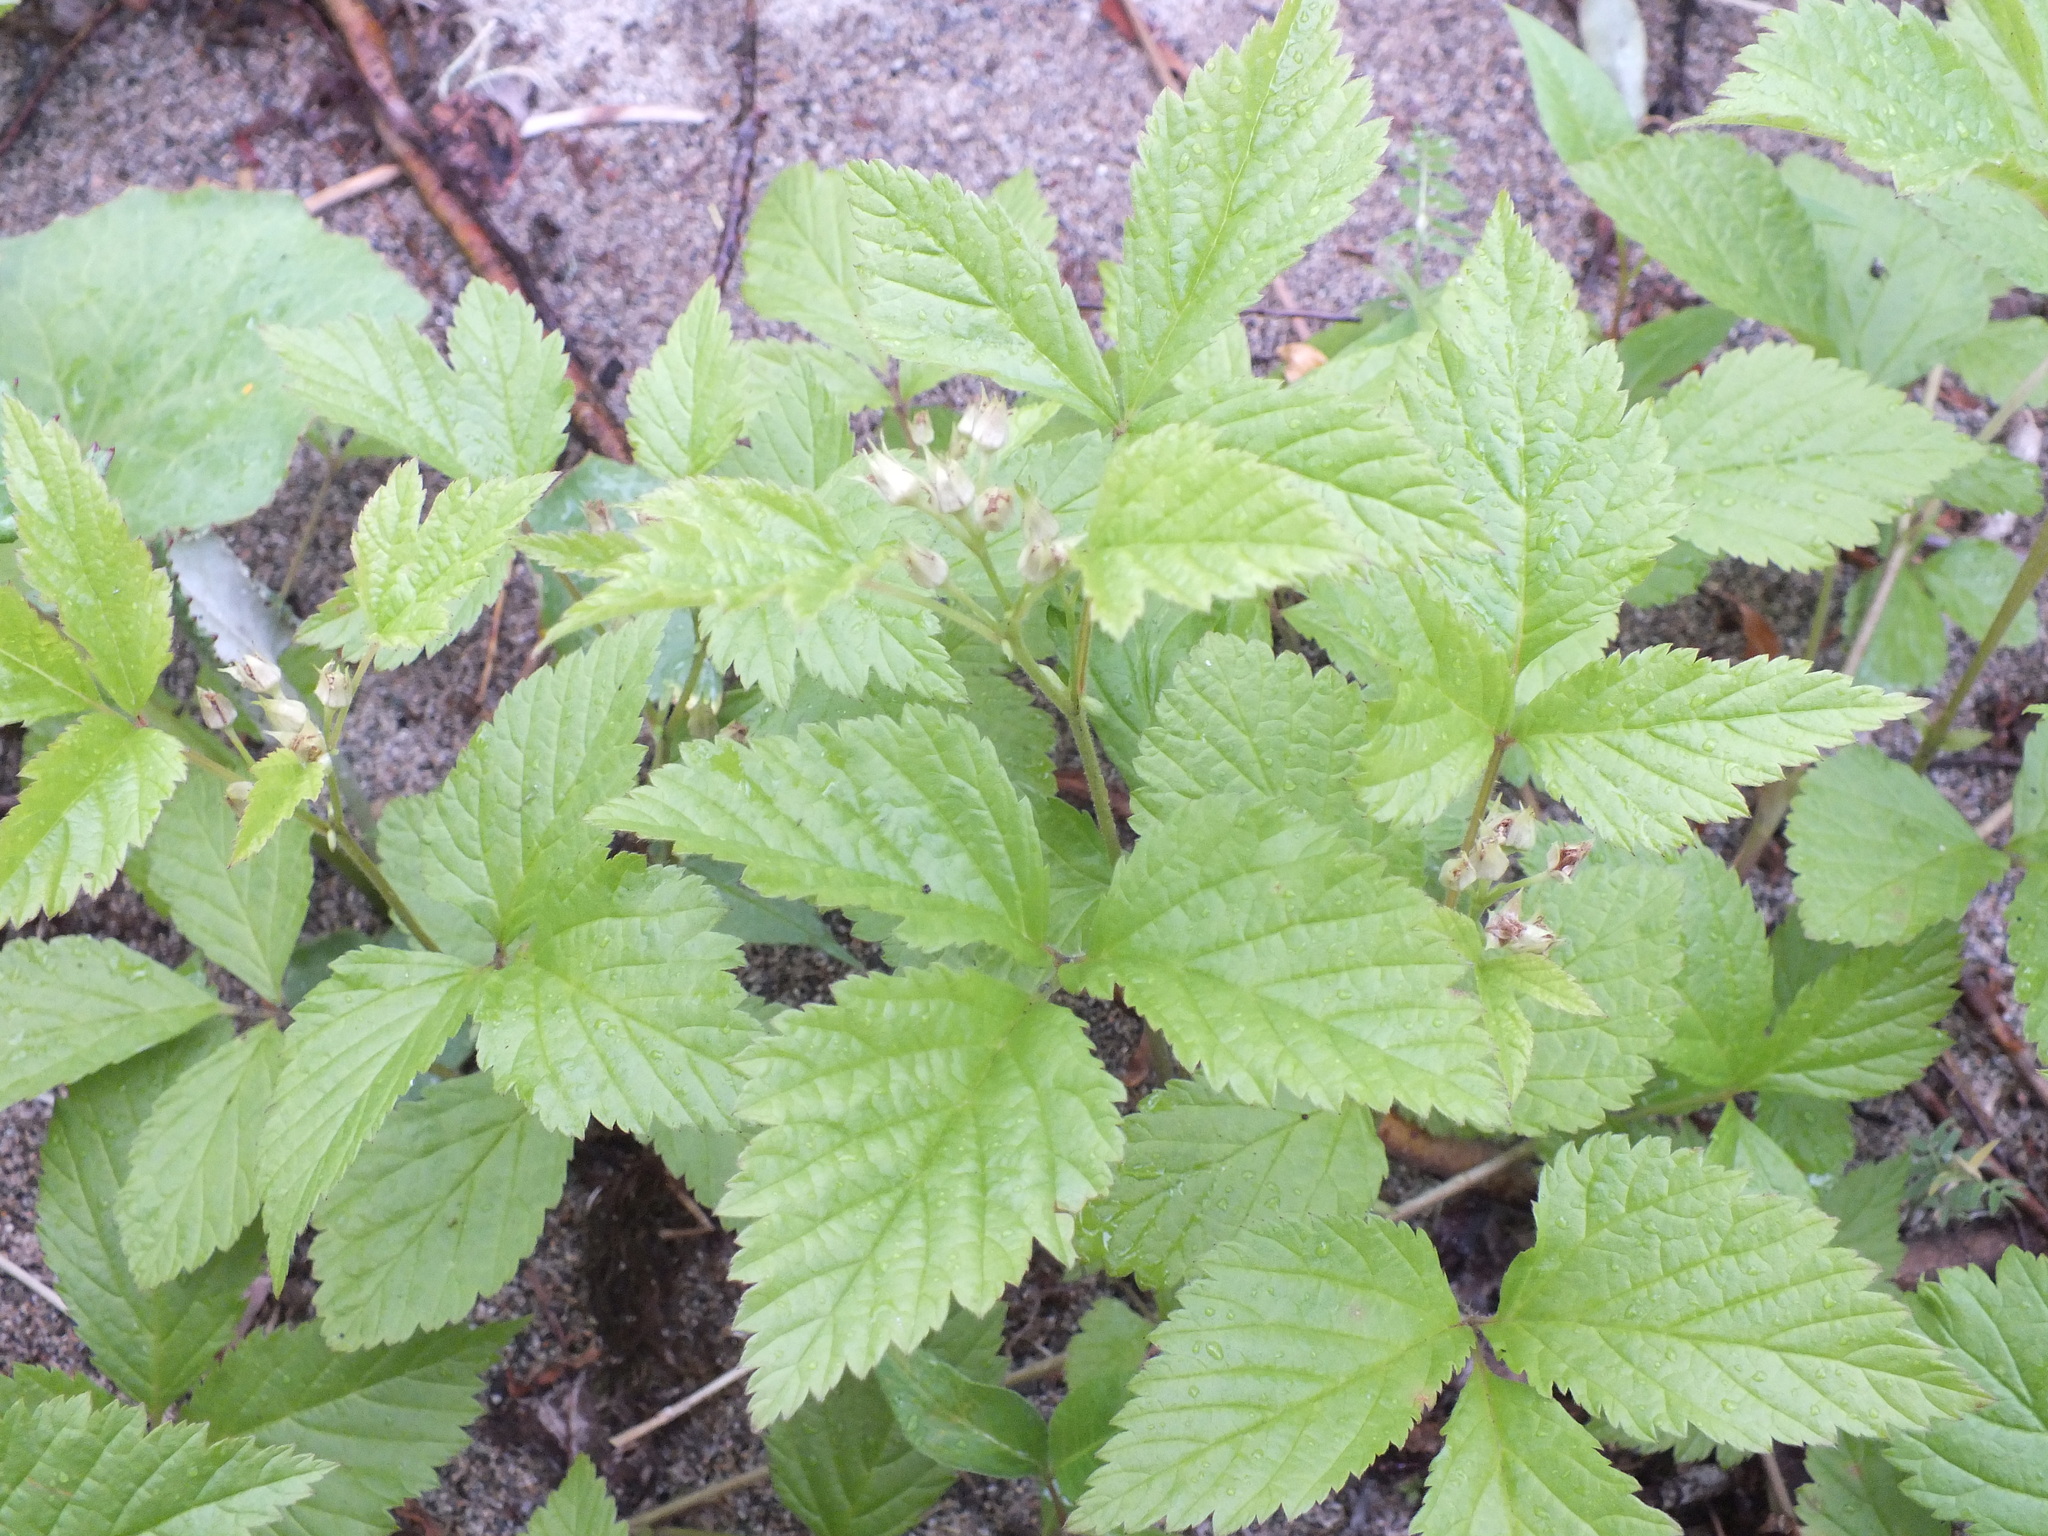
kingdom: Plantae
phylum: Tracheophyta
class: Magnoliopsida
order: Rosales
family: Rosaceae
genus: Rubus
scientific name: Rubus saxatilis
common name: Stone bramble
